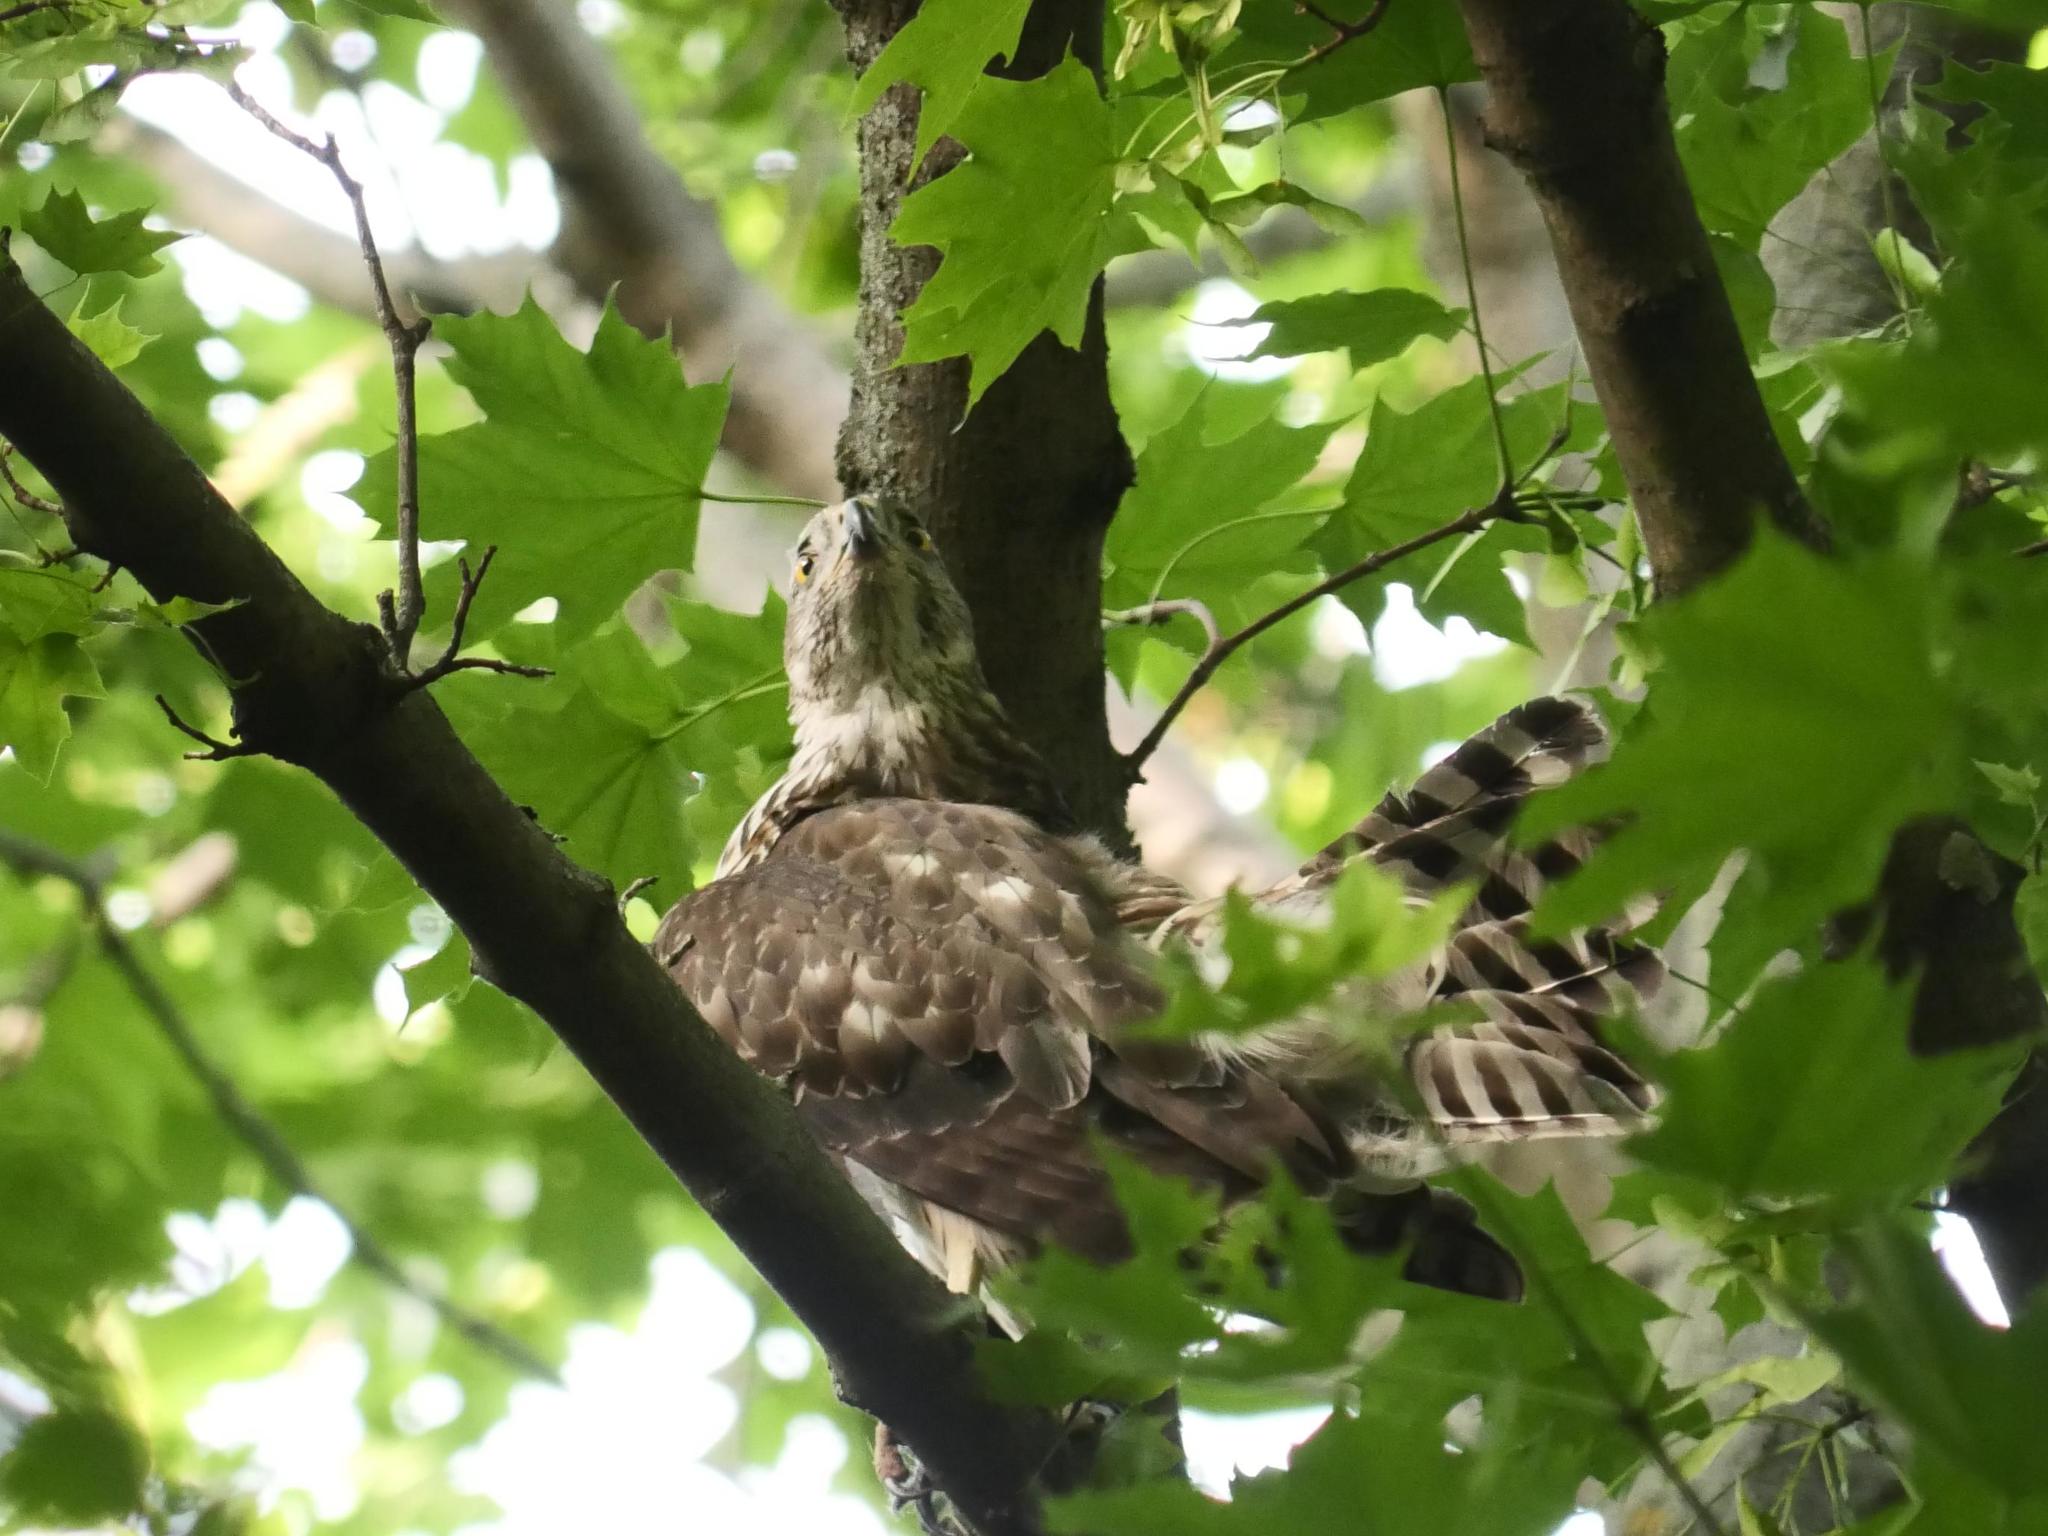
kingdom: Animalia
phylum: Chordata
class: Aves
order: Accipitriformes
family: Accipitridae
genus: Accipiter
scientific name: Accipiter gentilis
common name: Northern goshawk
